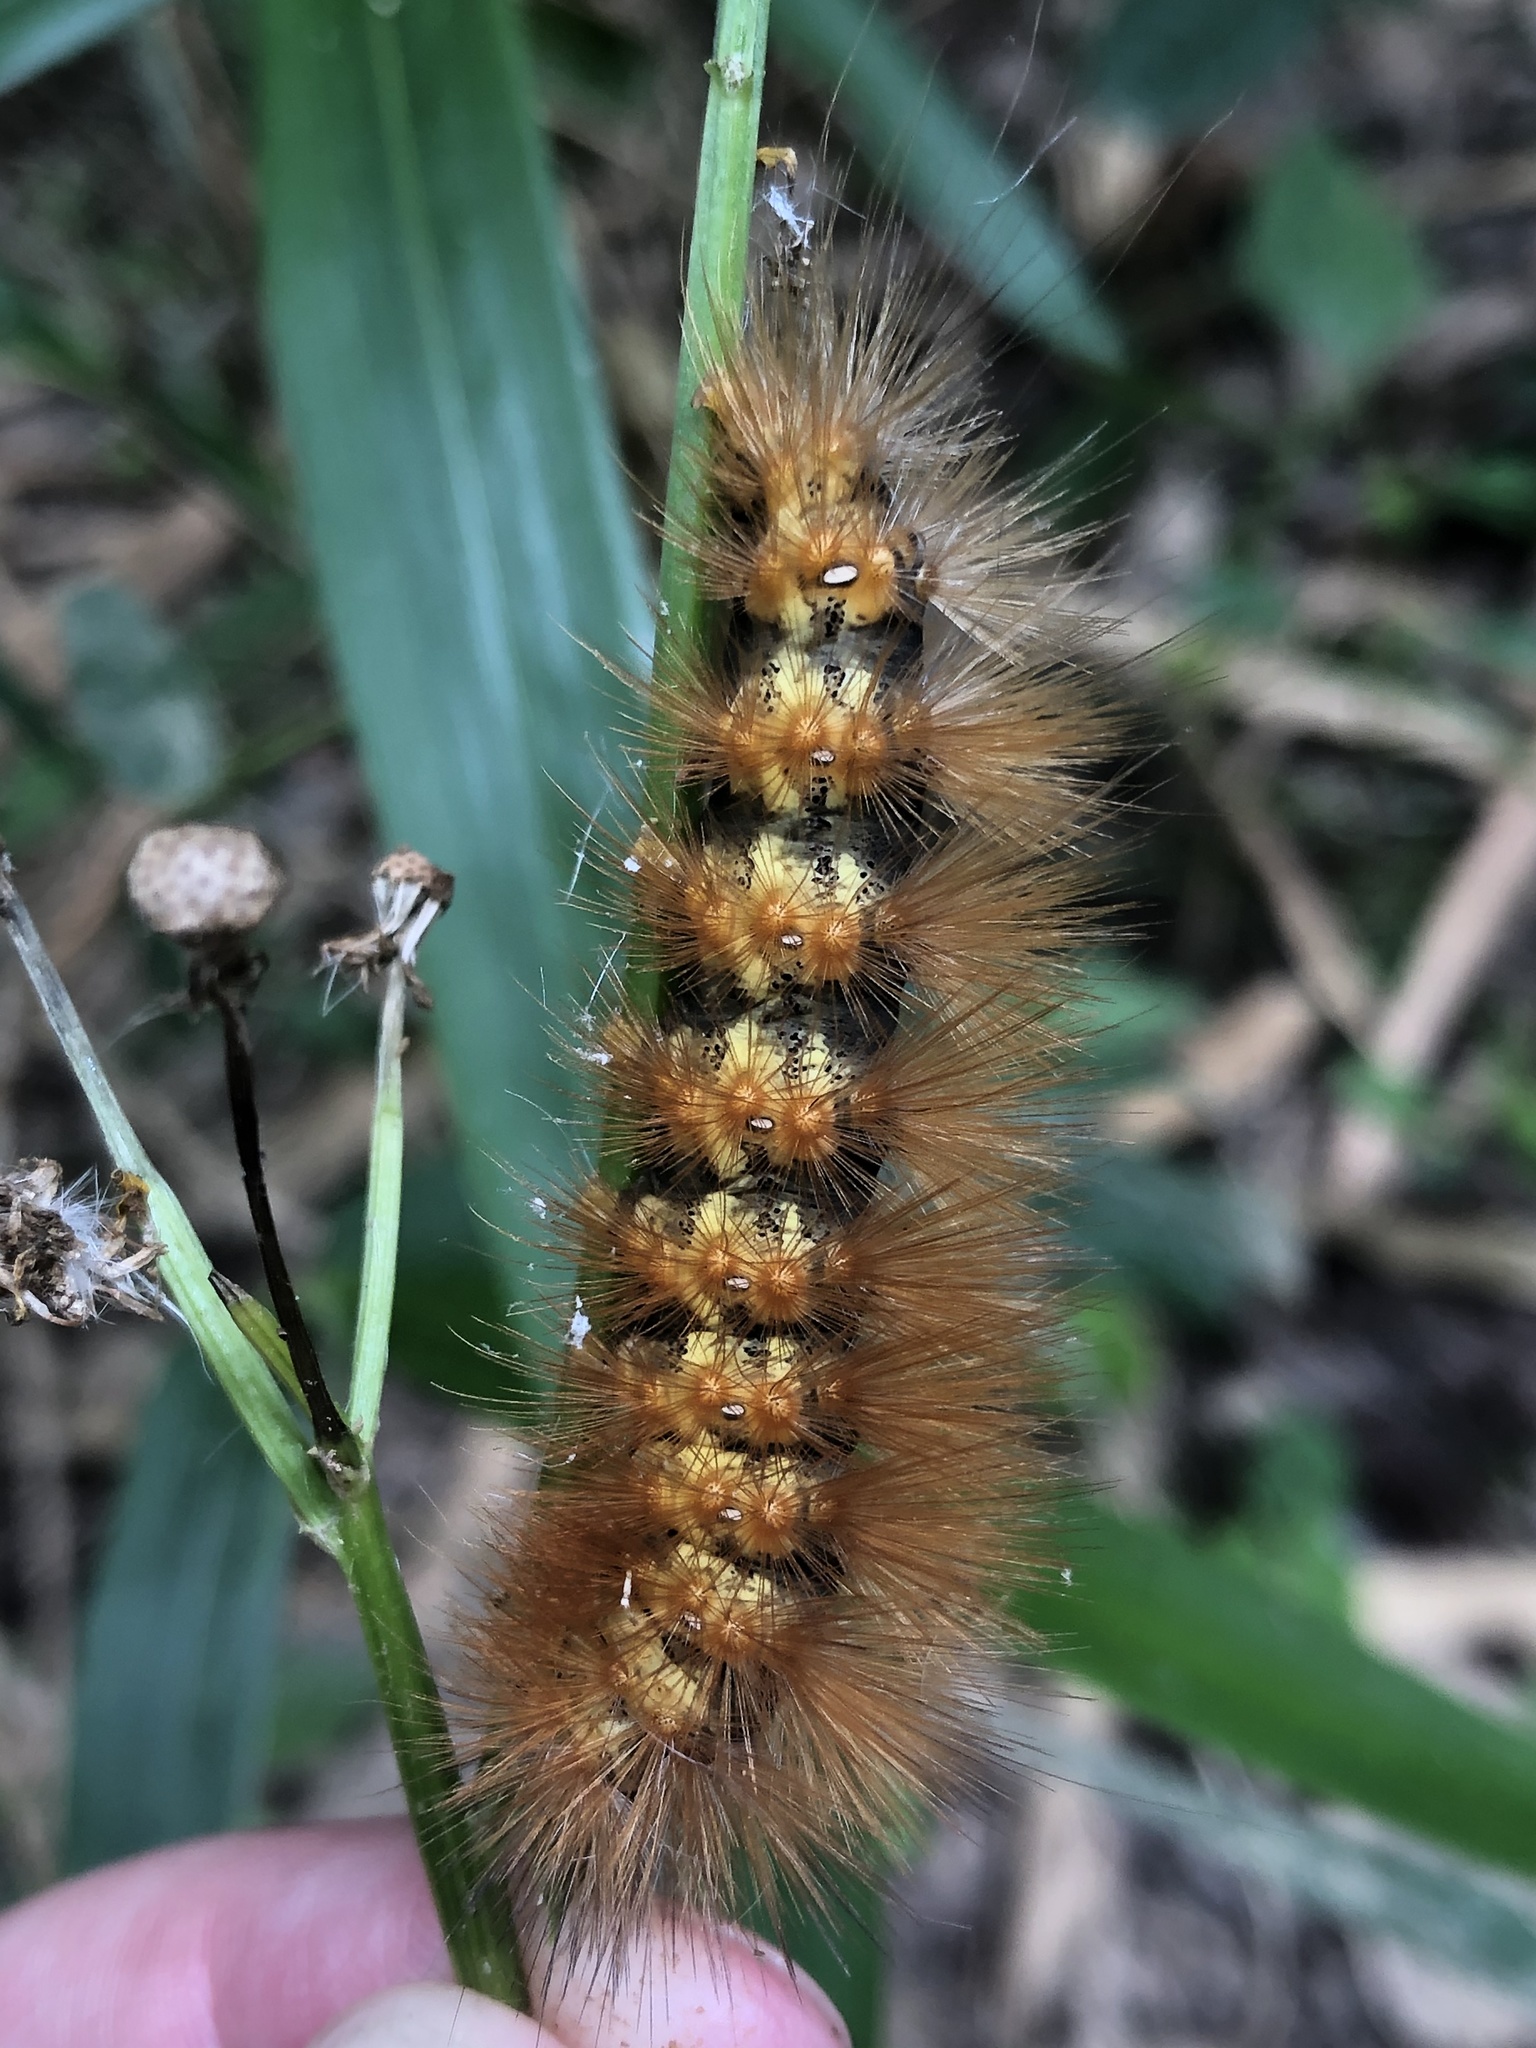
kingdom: Animalia
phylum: Arthropoda
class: Insecta
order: Lepidoptera
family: Erebidae
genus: Estigmene
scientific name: Estigmene acrea
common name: Salt marsh moth
